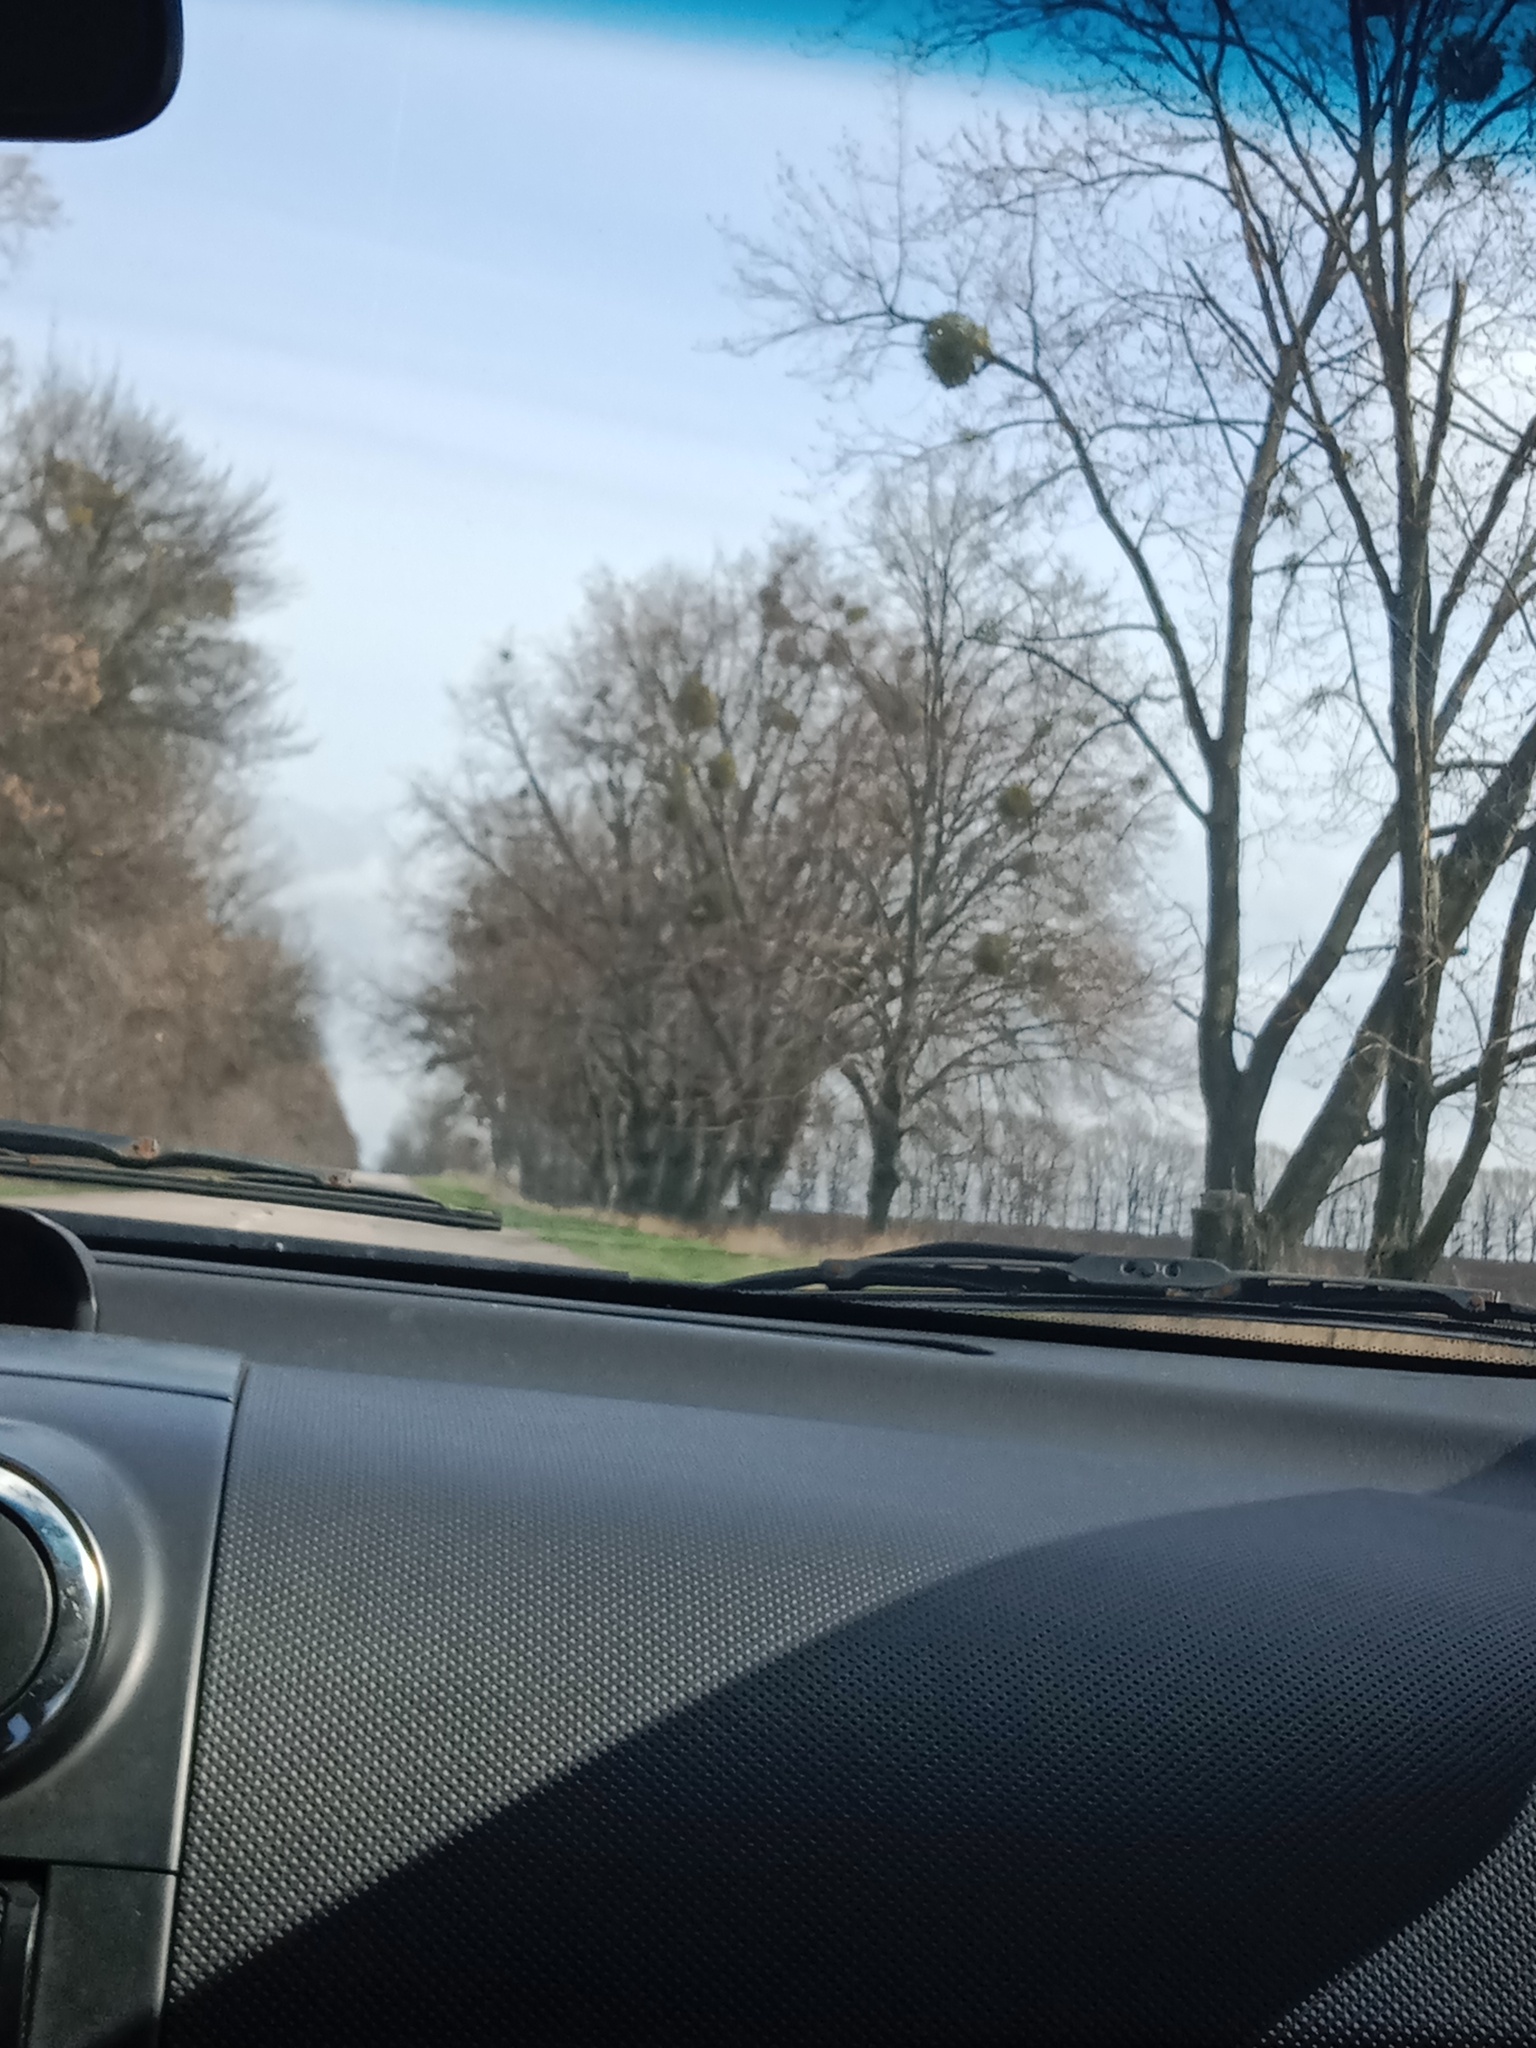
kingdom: Plantae
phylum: Tracheophyta
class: Magnoliopsida
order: Santalales
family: Viscaceae
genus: Viscum
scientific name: Viscum album
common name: Mistletoe
